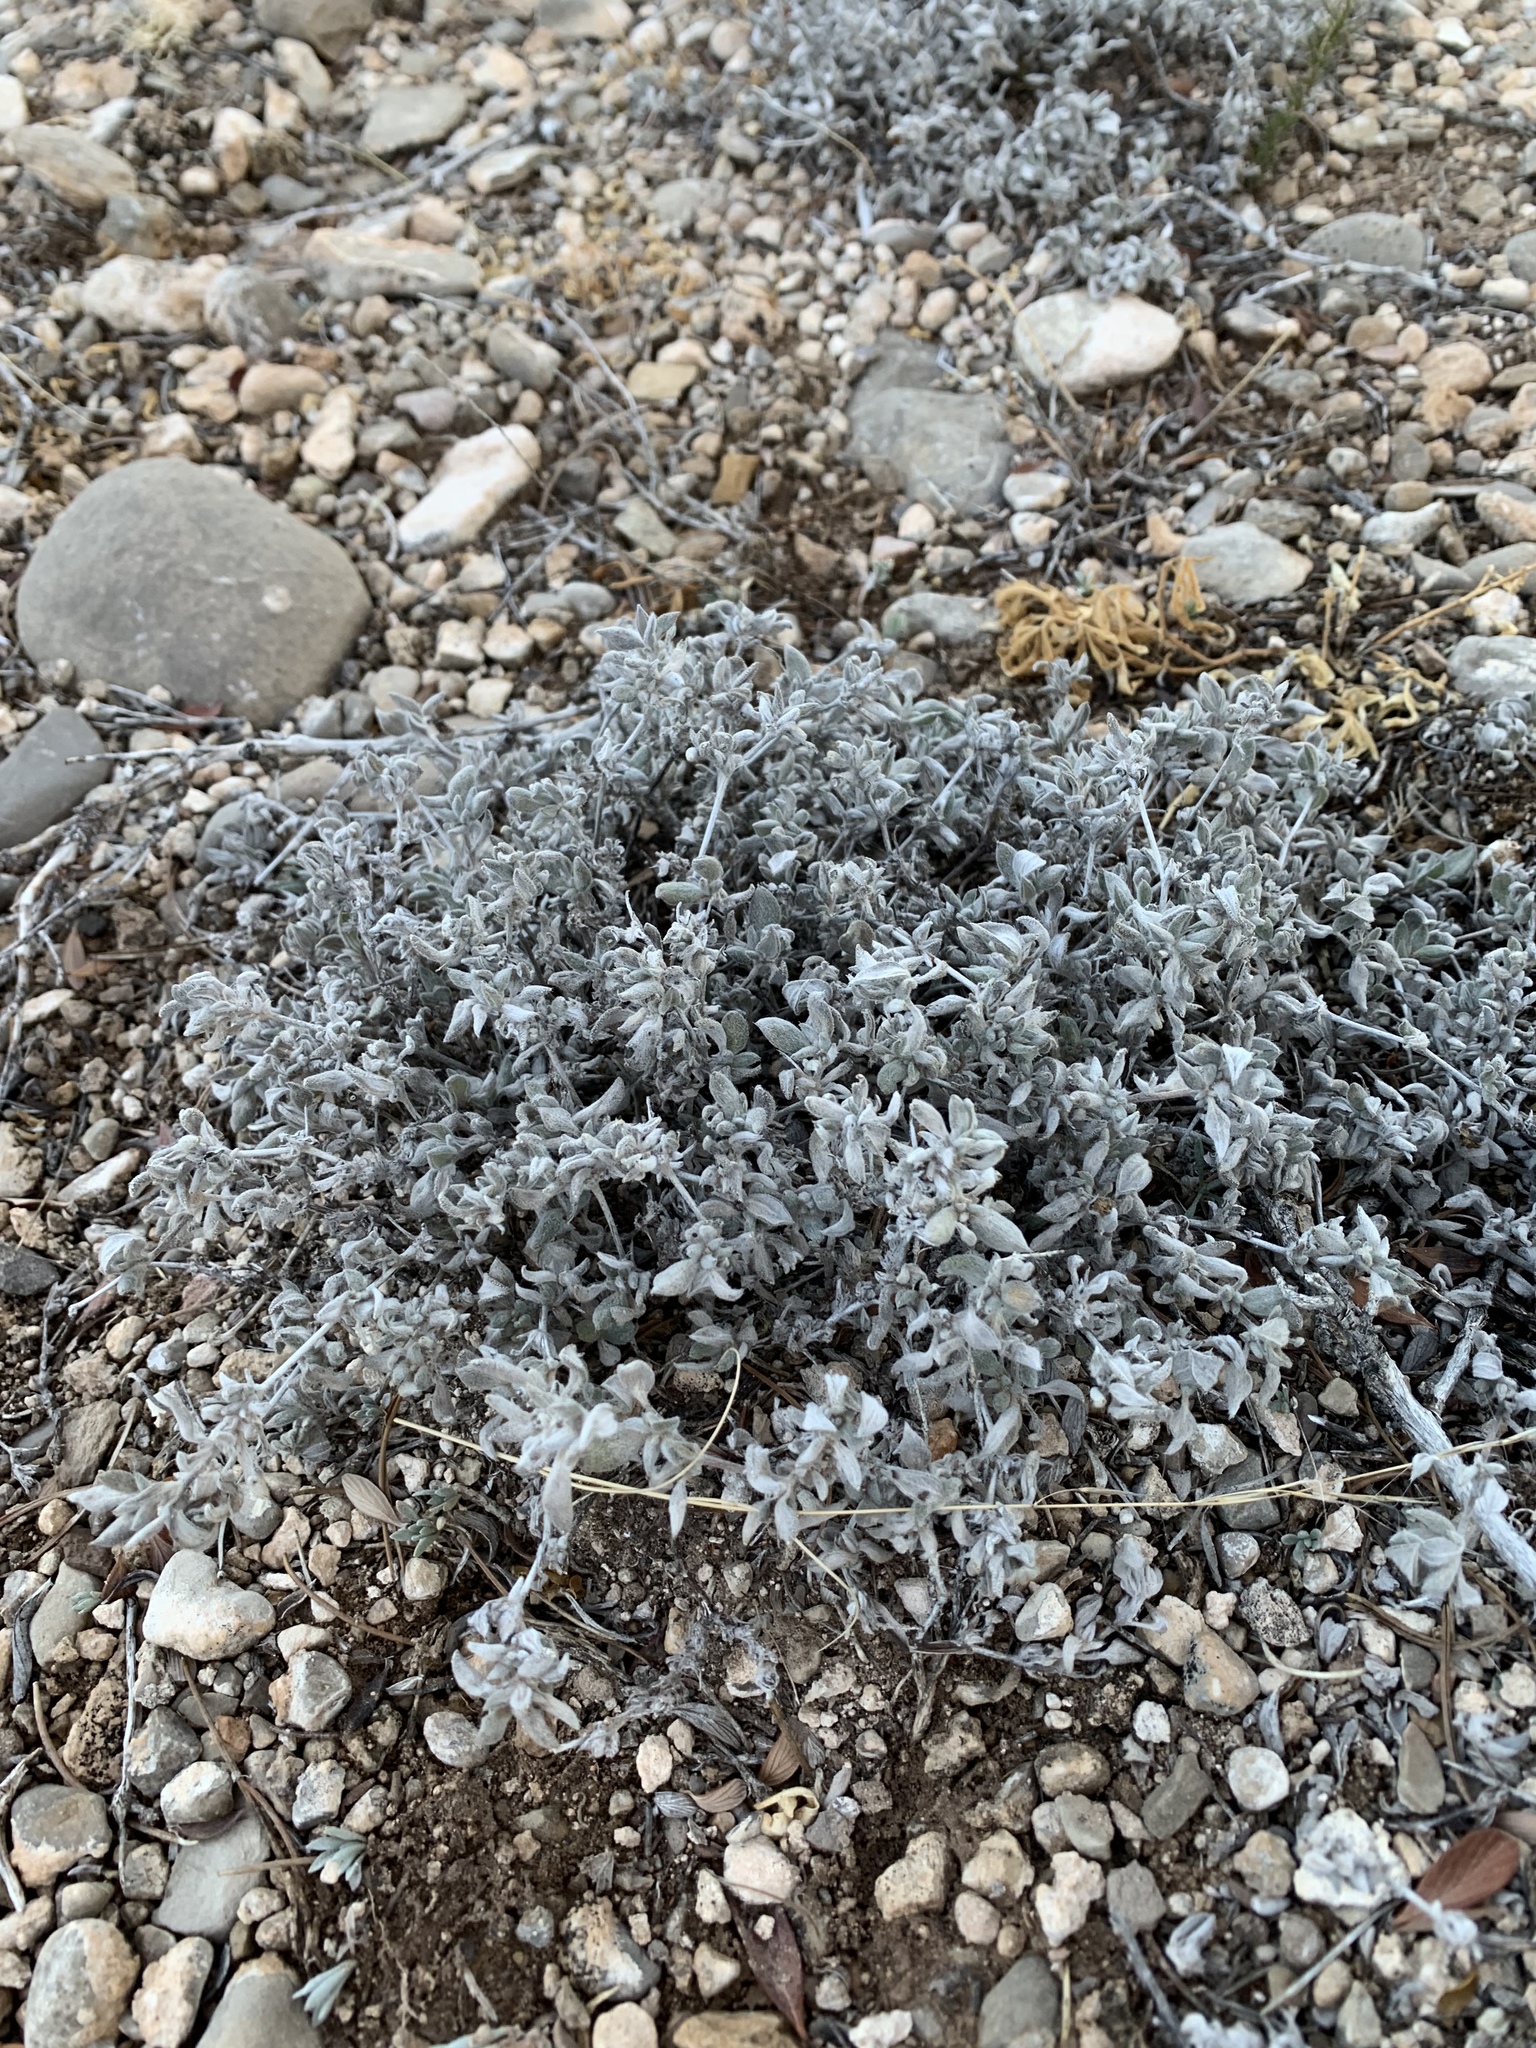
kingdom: Plantae
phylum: Tracheophyta
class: Magnoliopsida
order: Boraginales
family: Ehretiaceae
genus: Tiquilia
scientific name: Tiquilia canescens
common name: Hairy tiquilia
